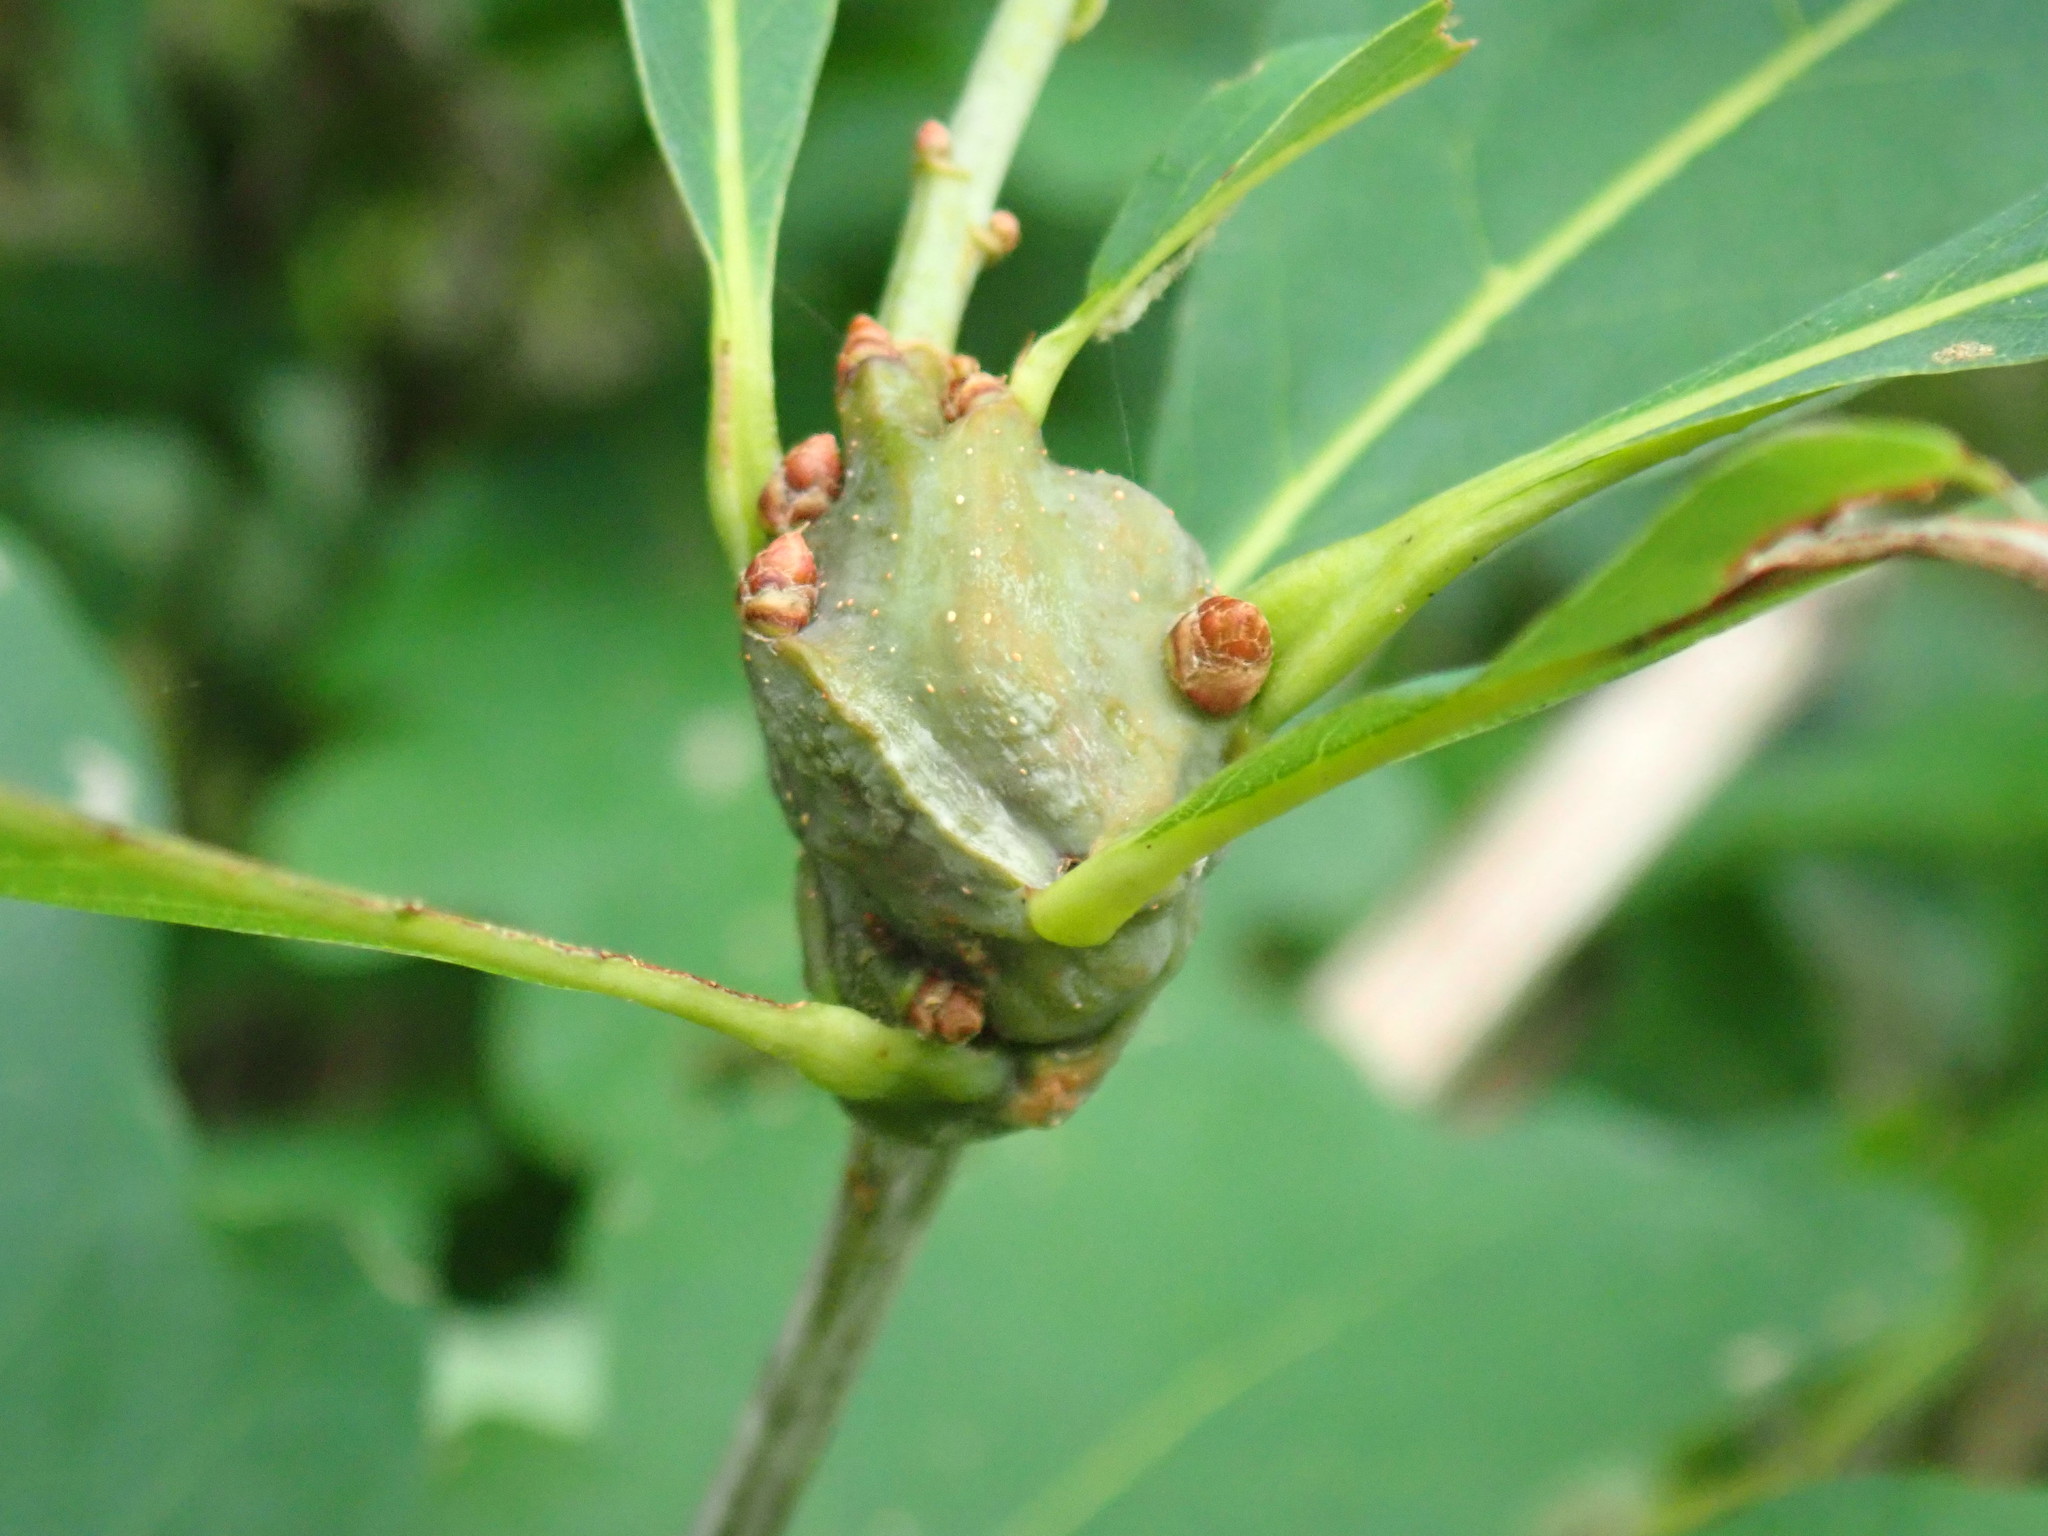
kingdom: Animalia
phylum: Arthropoda
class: Insecta
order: Hymenoptera
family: Cynipidae
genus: Callirhytis
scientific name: Callirhytis clavula
